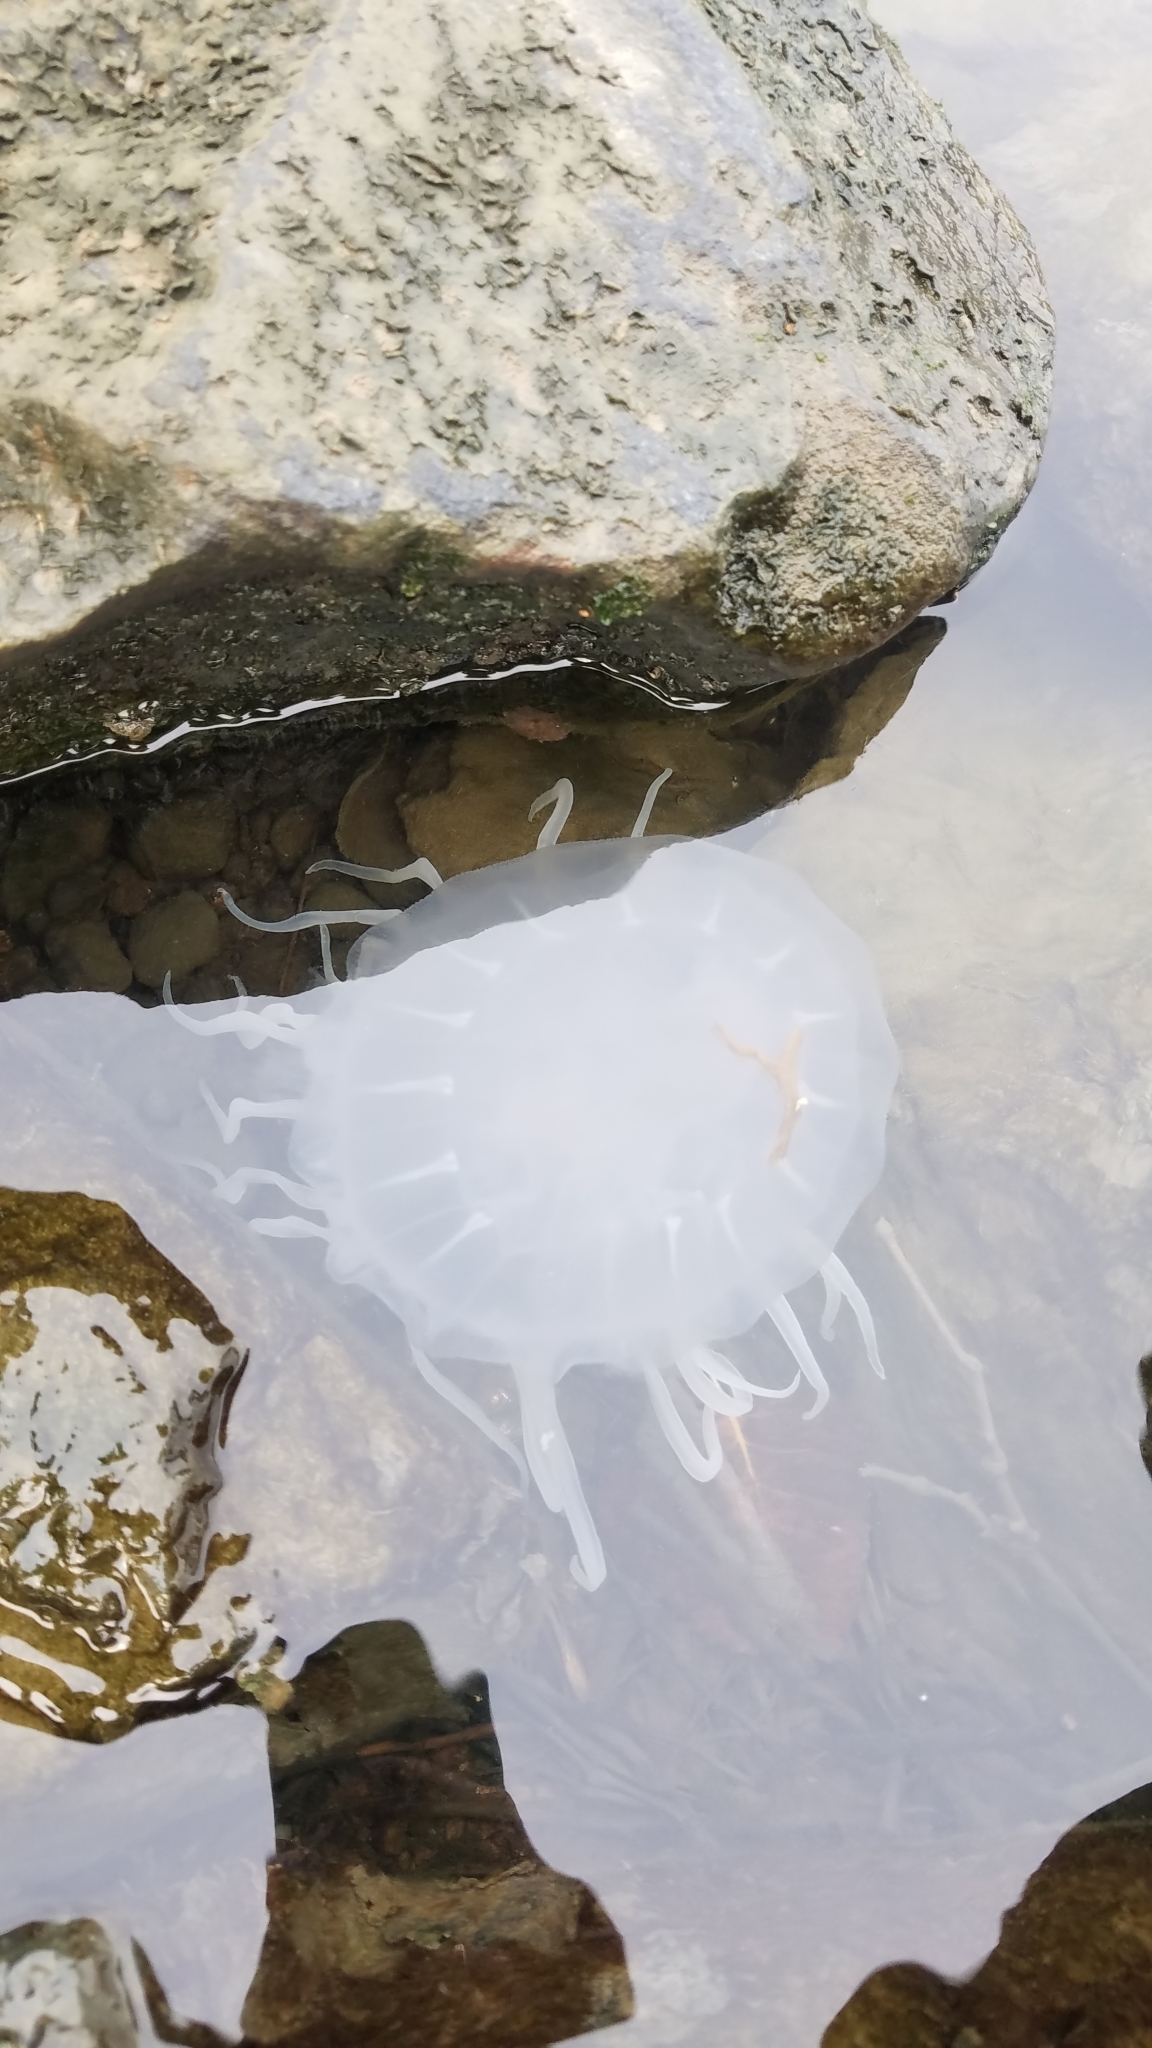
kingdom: Animalia
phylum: Cnidaria
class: Scyphozoa
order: Semaeostomeae
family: Pelagiidae
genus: Chrysaora
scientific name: Chrysaora chesapeakei
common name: Bay nettle
